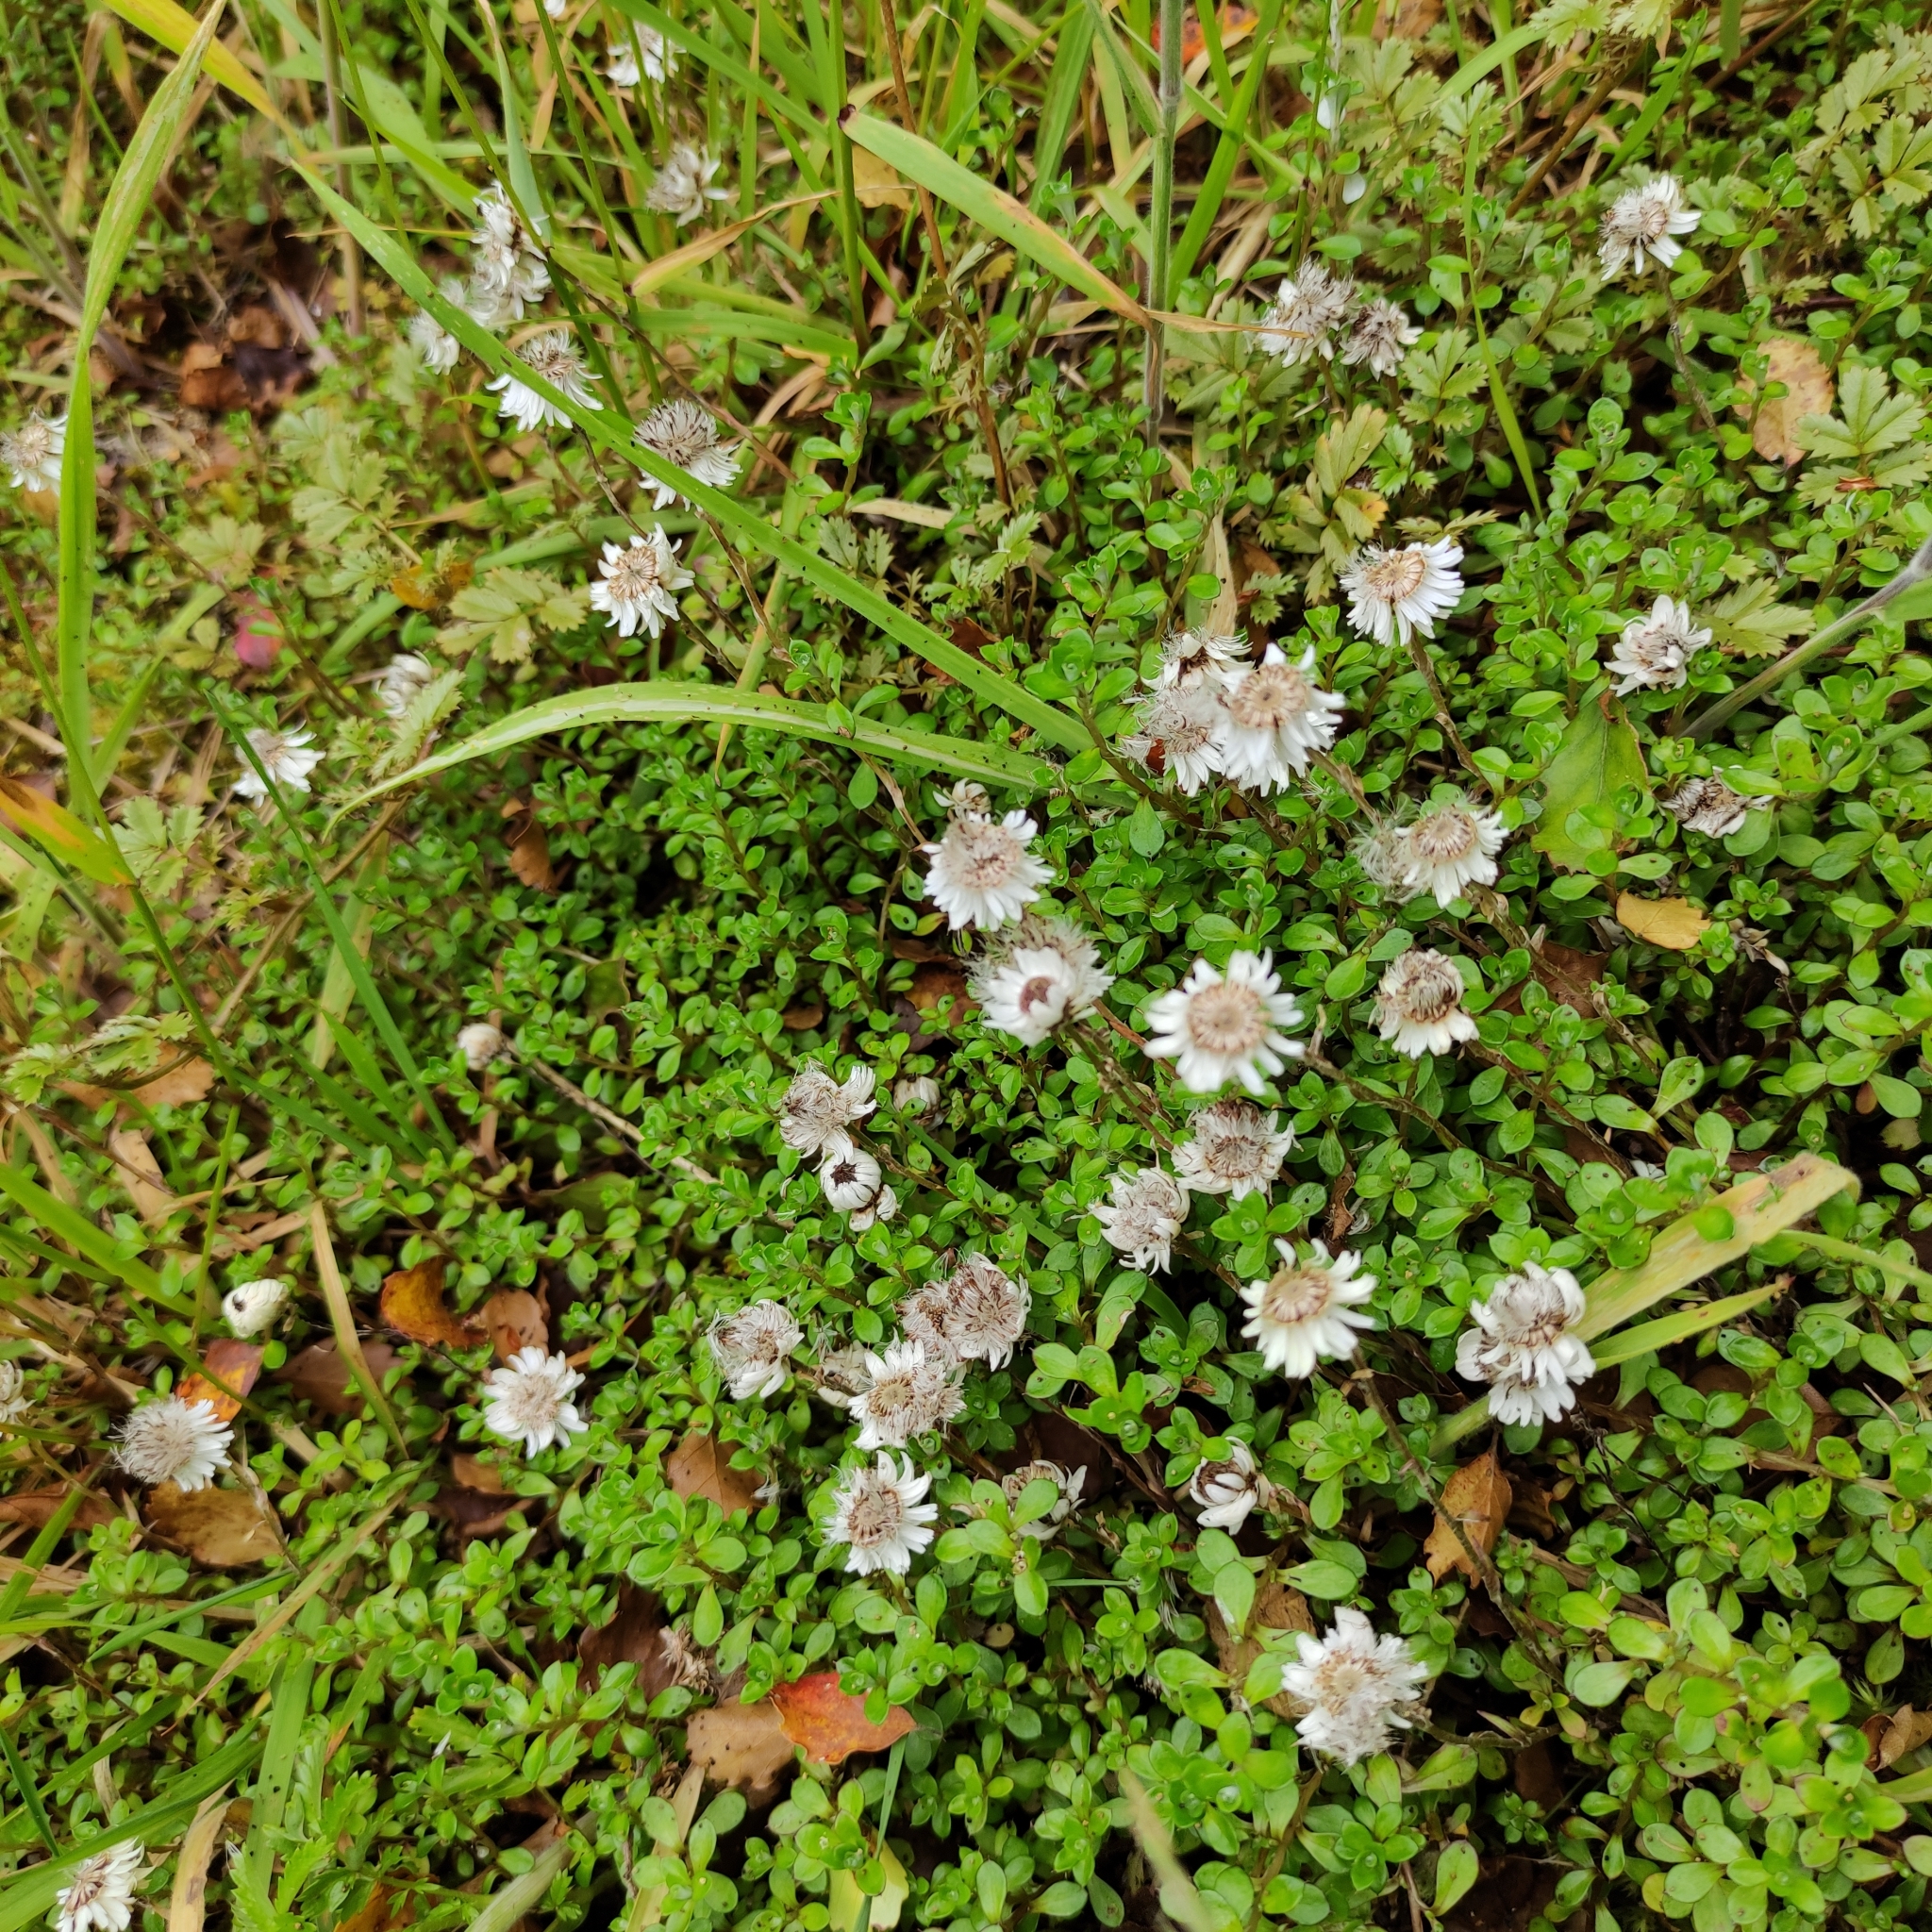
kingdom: Plantae
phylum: Tracheophyta
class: Magnoliopsida
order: Asterales
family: Asteraceae
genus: Anaphalioides
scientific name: Anaphalioides bellidioides
